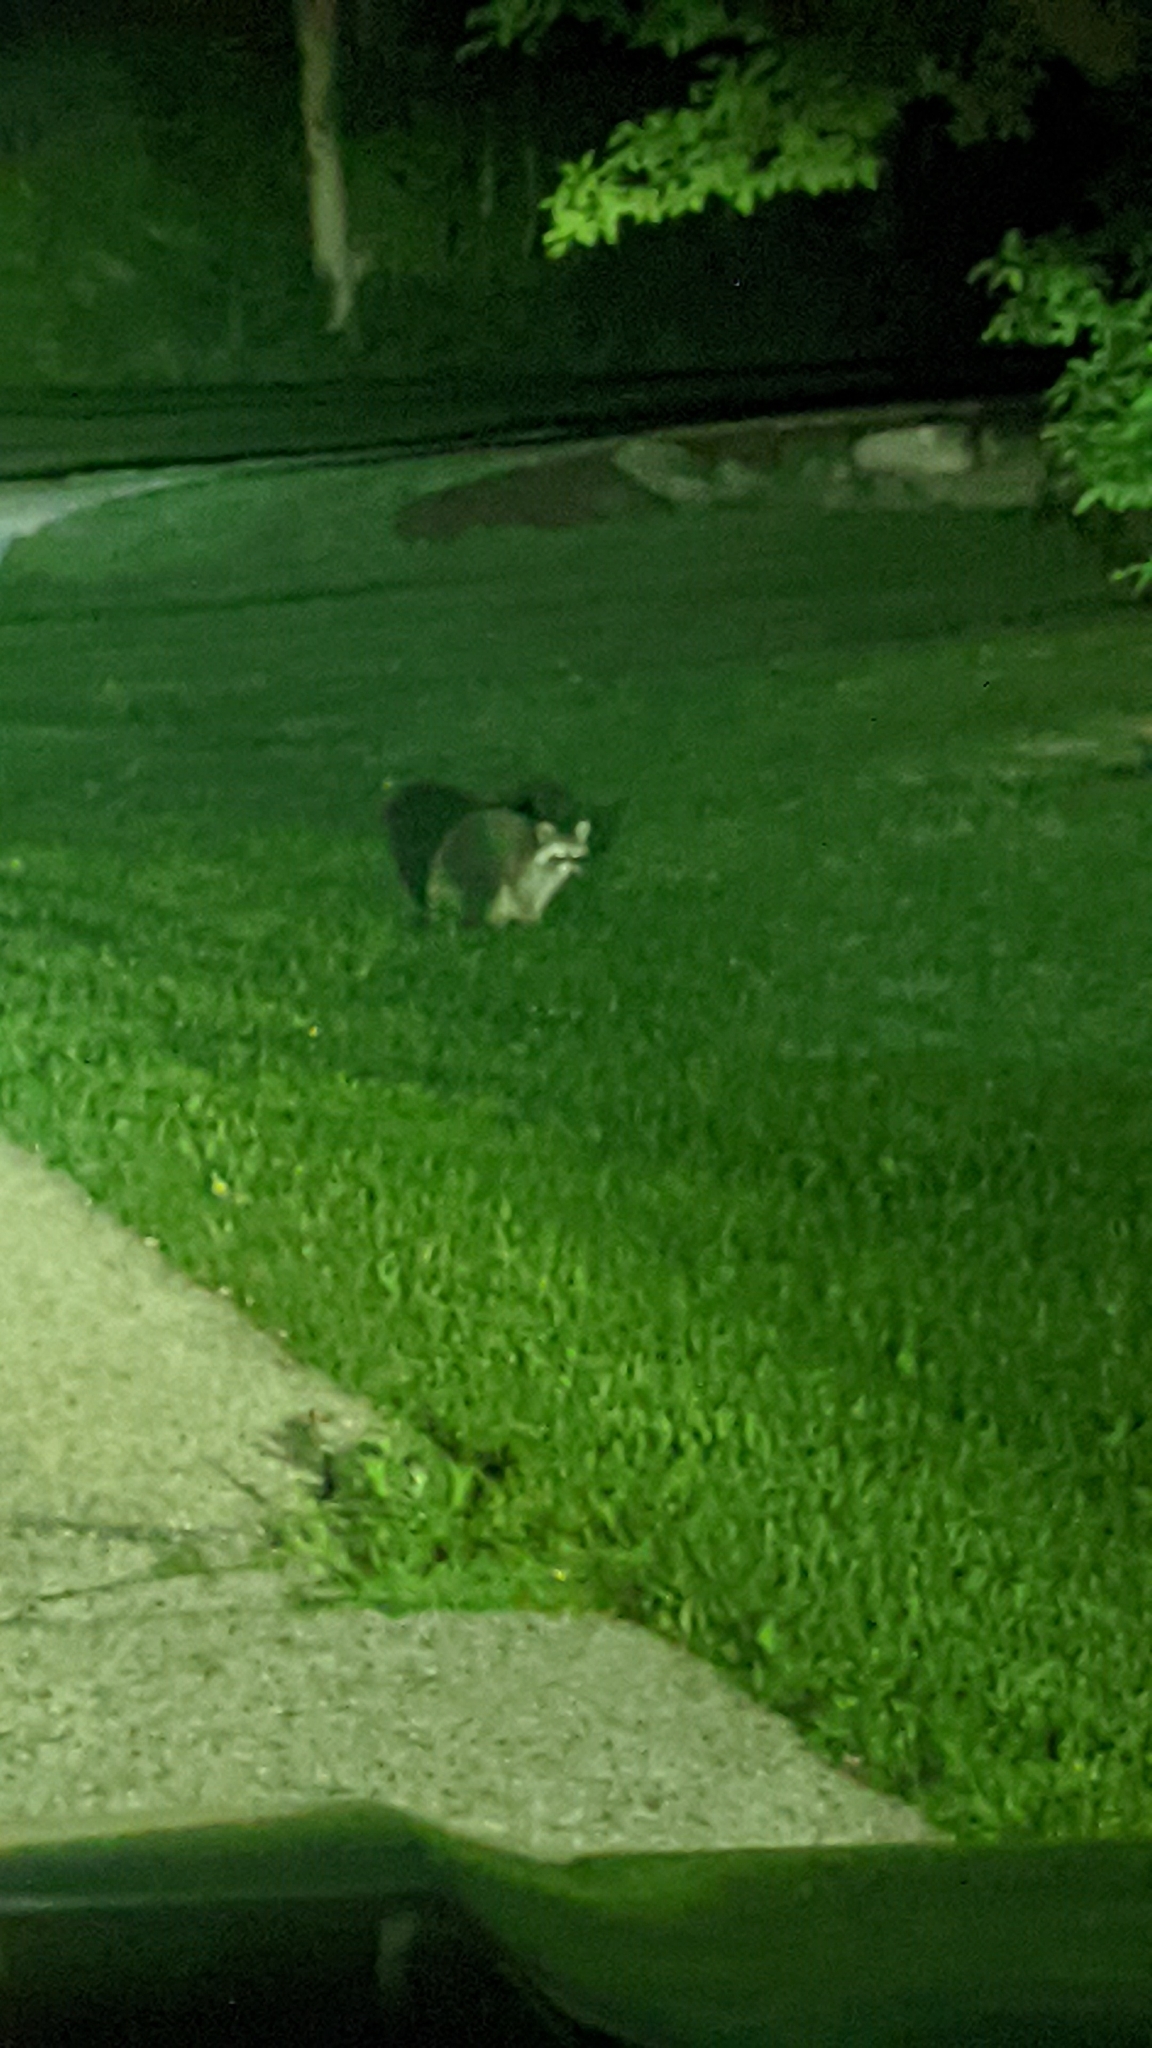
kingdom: Animalia
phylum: Chordata
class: Mammalia
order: Carnivora
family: Procyonidae
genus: Procyon
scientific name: Procyon lotor
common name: Raccoon
